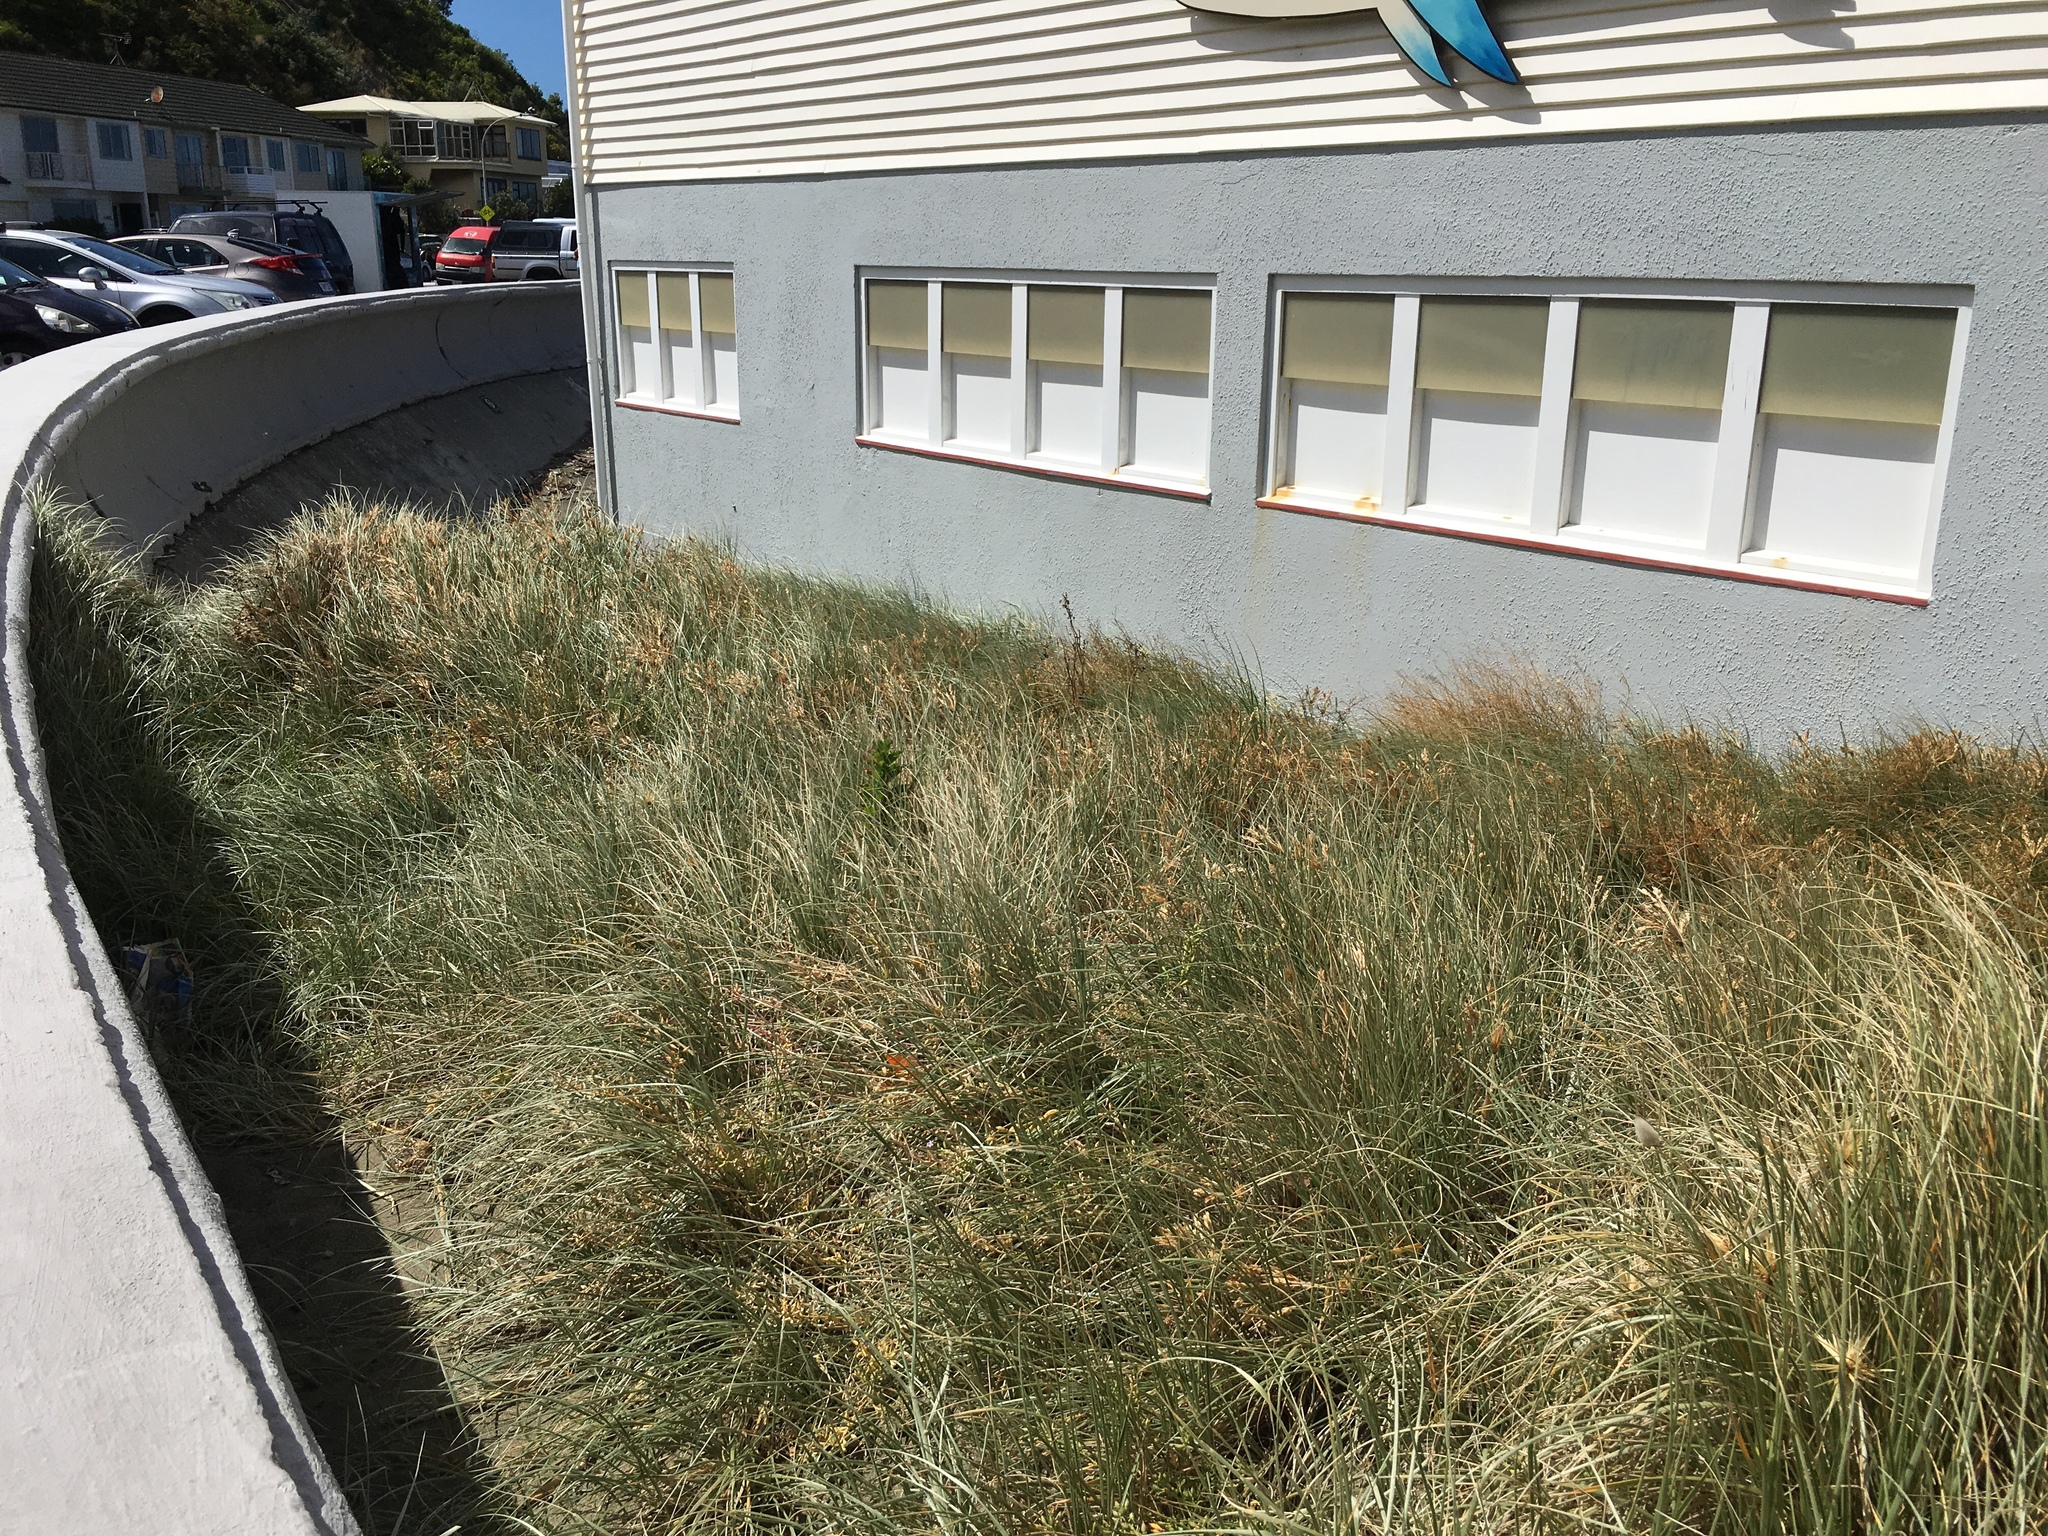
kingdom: Plantae
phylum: Tracheophyta
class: Liliopsida
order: Poales
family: Poaceae
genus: Spinifex
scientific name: Spinifex sericeus
